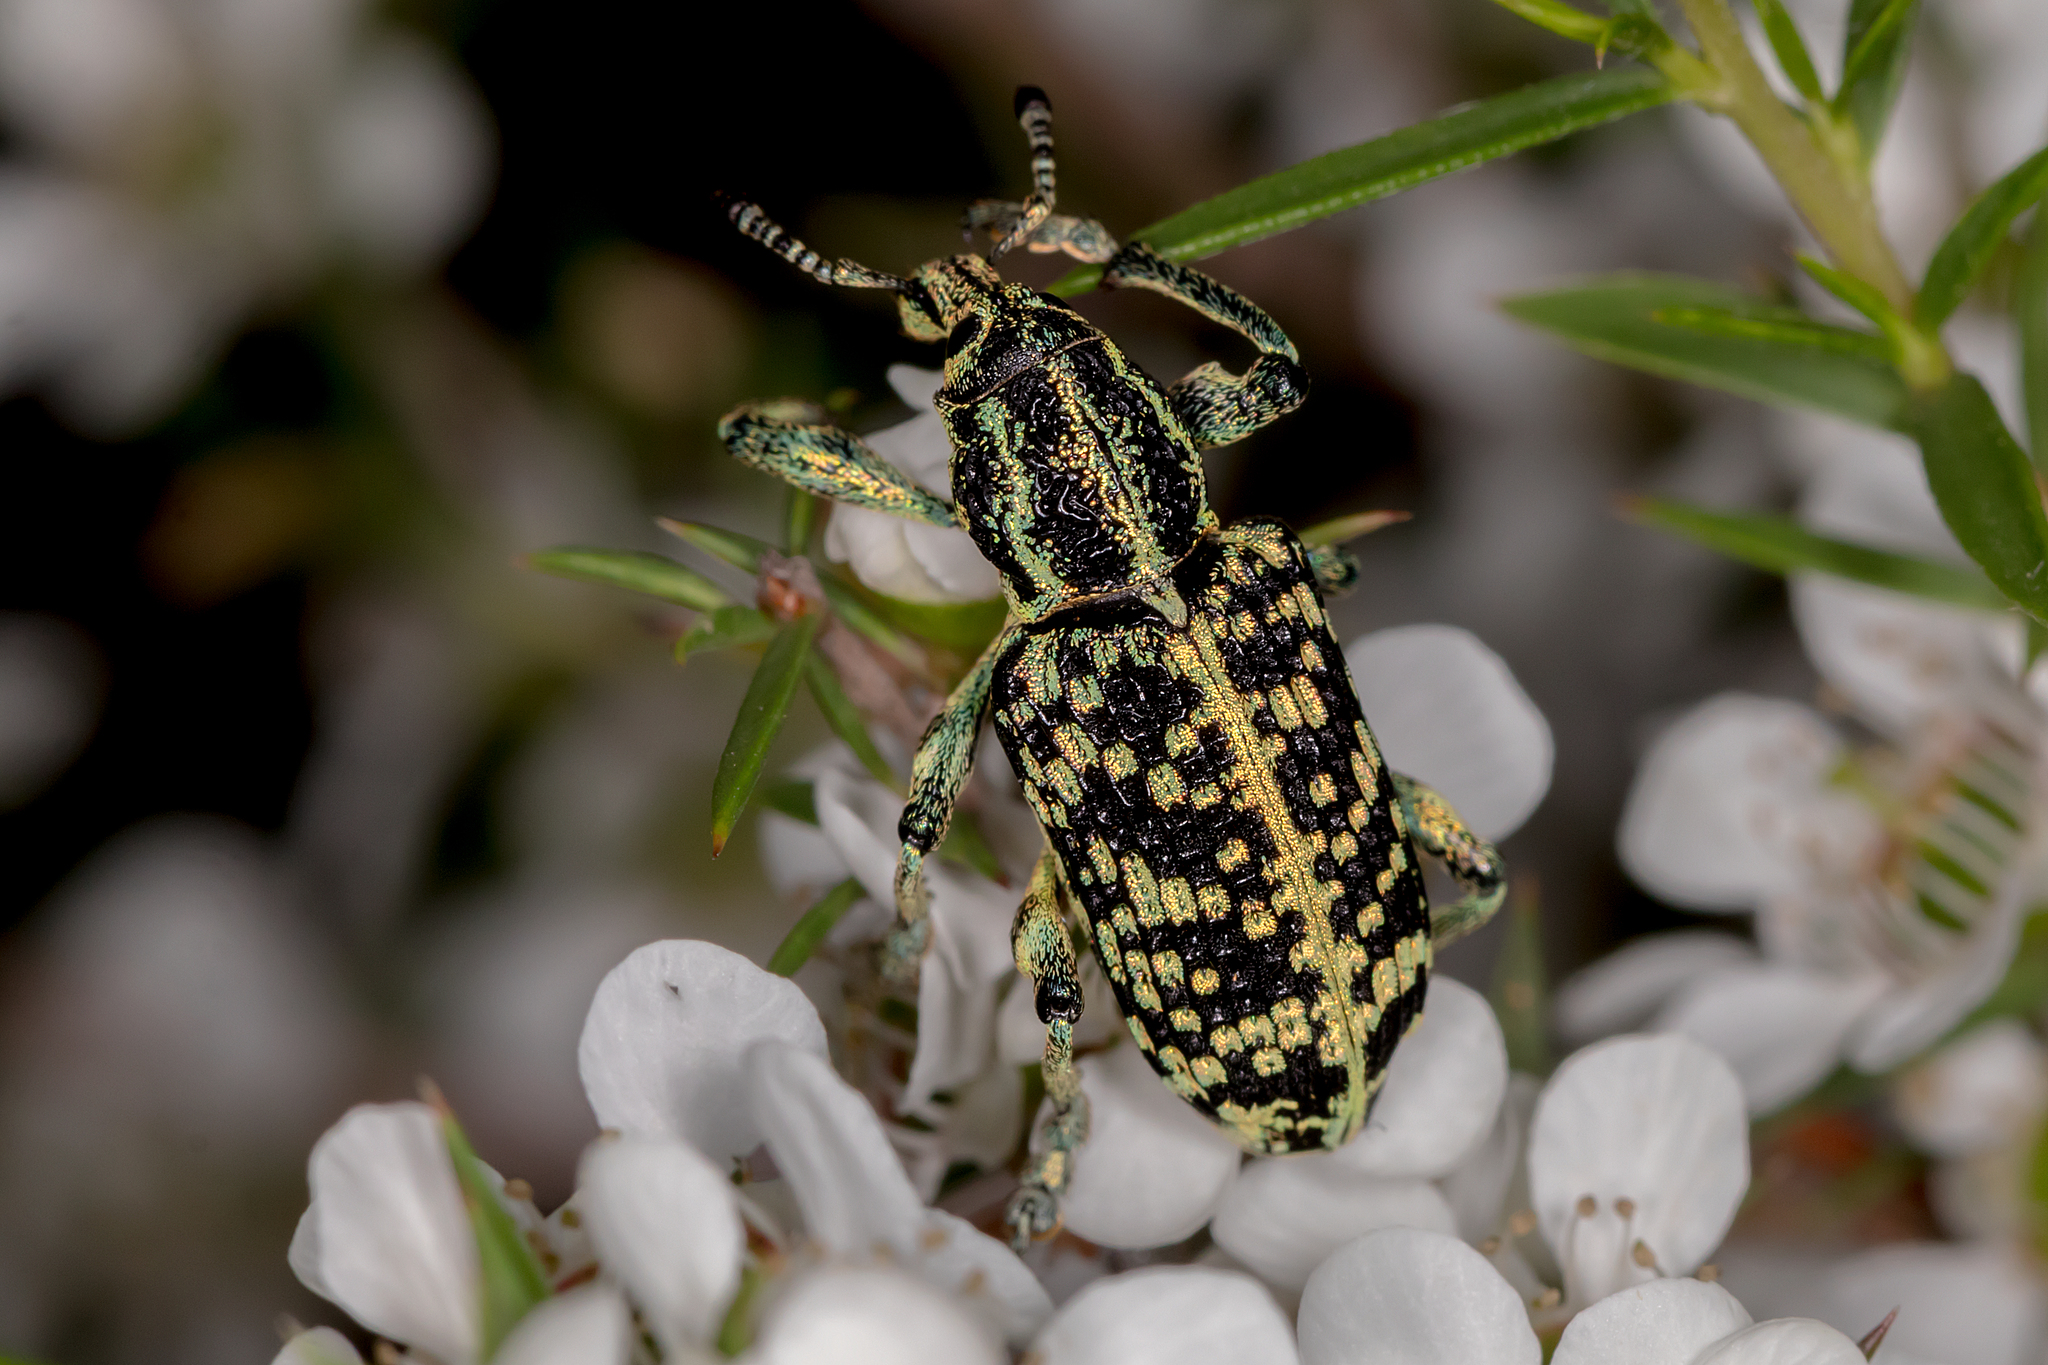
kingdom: Animalia
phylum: Arthropoda
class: Insecta
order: Coleoptera
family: Curculionidae
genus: Chrysolopus
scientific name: Chrysolopus spectabilis
